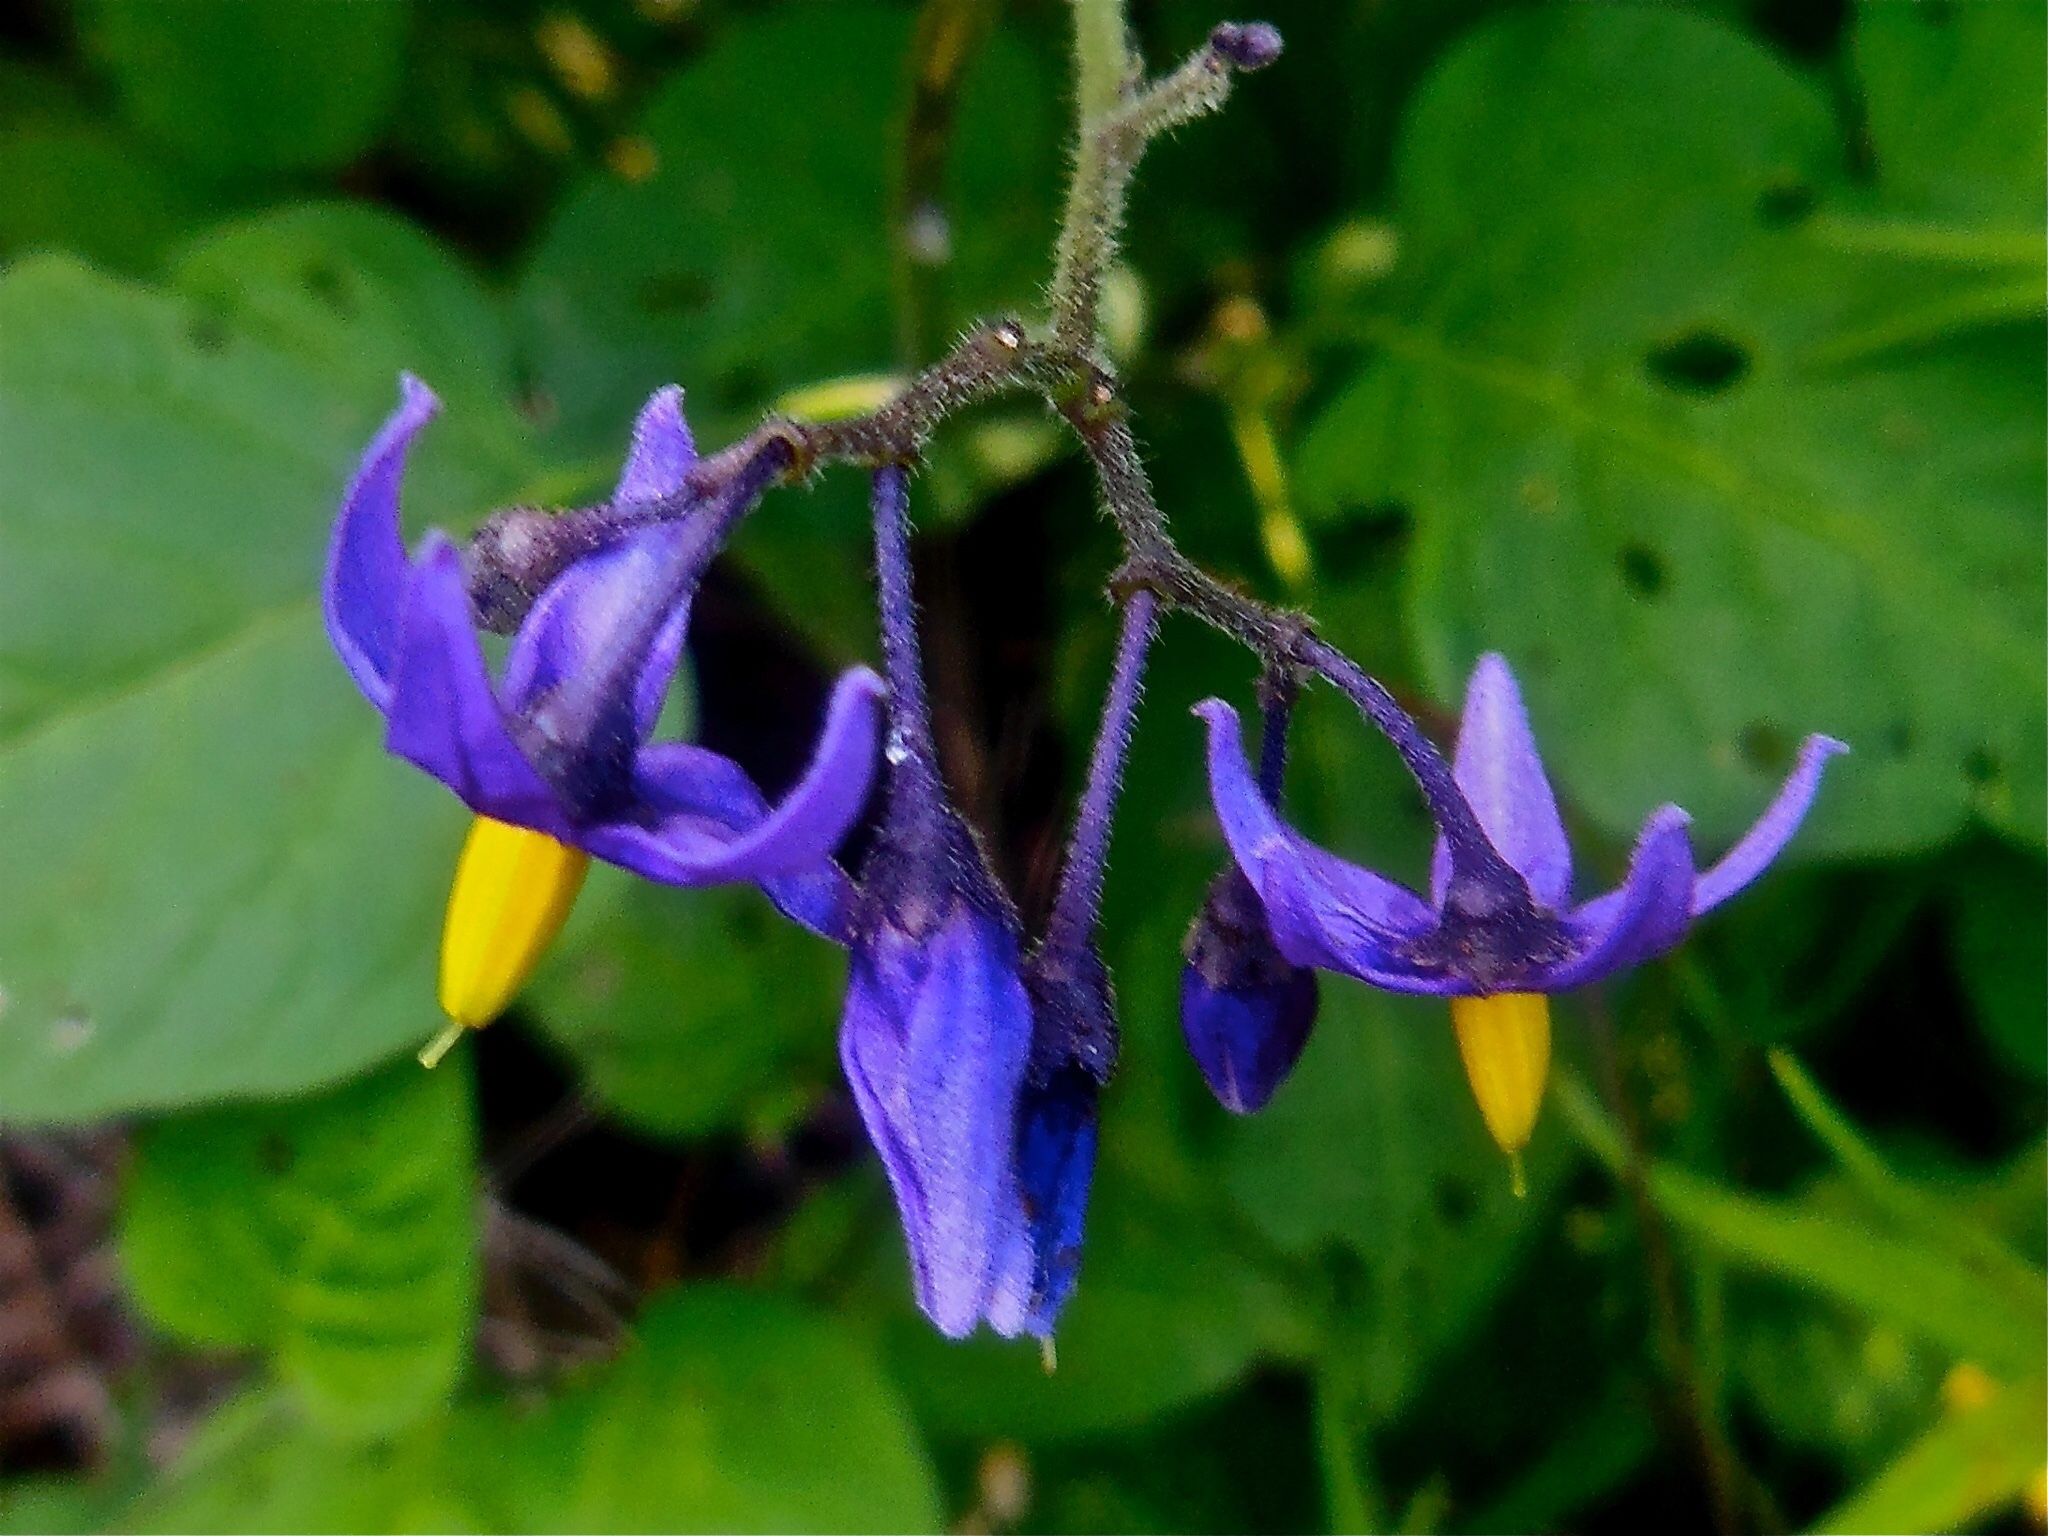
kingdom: Plantae
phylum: Tracheophyta
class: Magnoliopsida
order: Solanales
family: Solanaceae
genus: Solanum
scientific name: Solanum dulcamara
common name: Climbing nightshade
